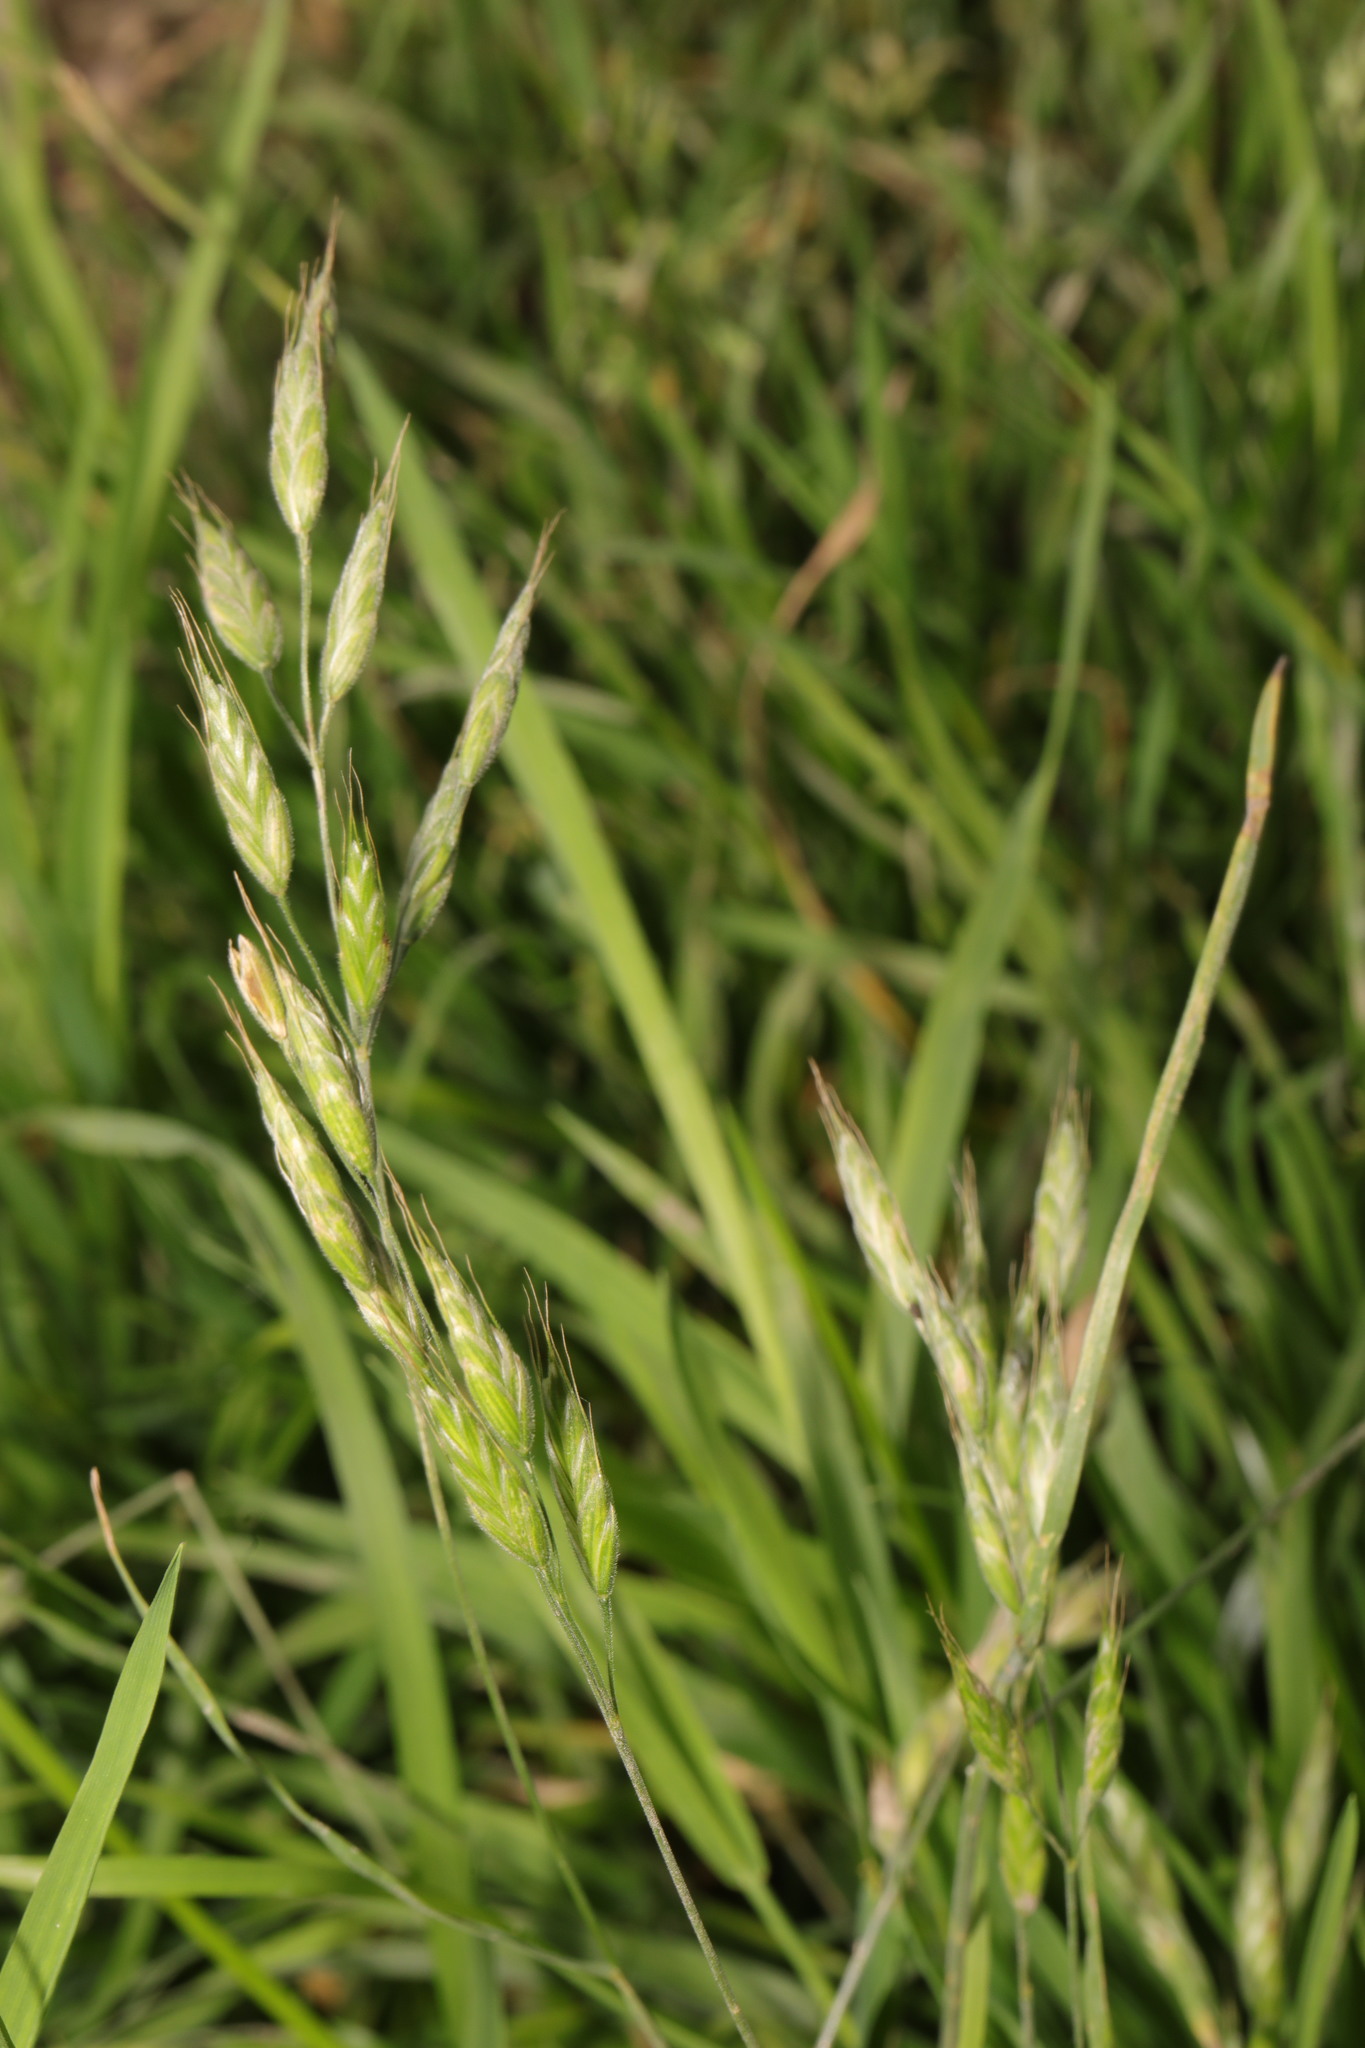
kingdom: Plantae
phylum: Tracheophyta
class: Liliopsida
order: Poales
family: Poaceae
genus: Bromus
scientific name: Bromus hordeaceus
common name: Soft brome
